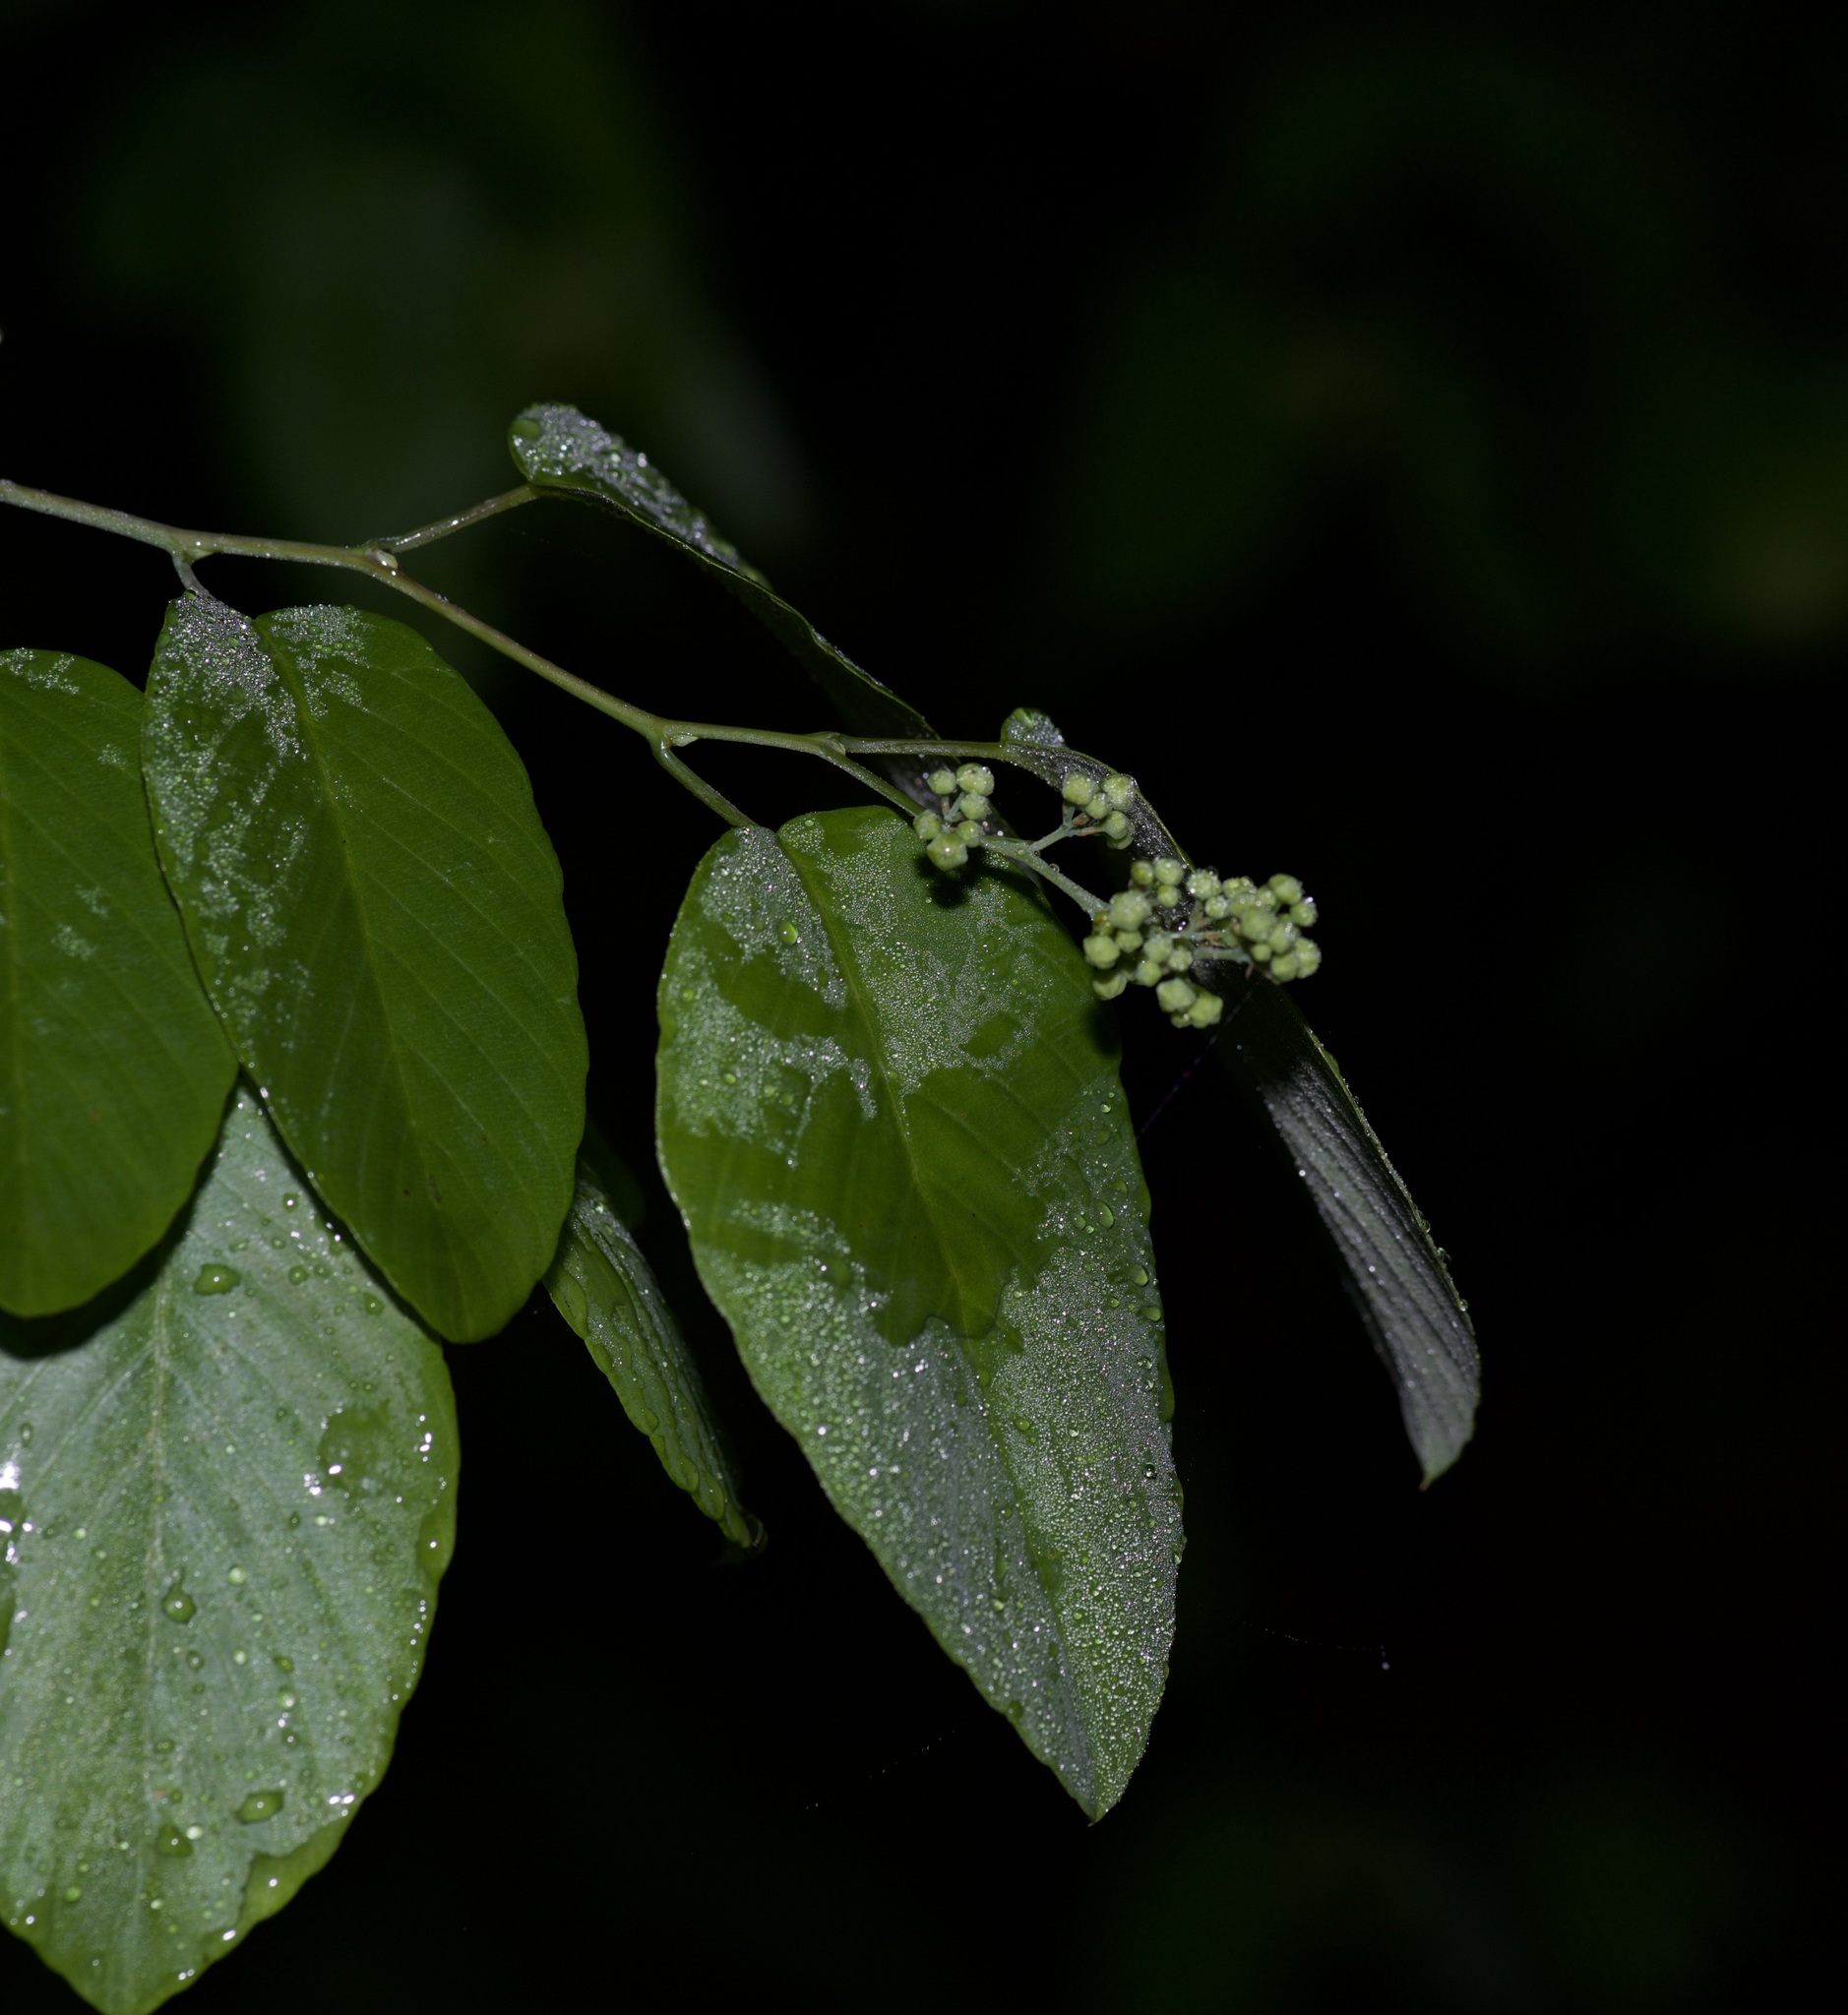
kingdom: Plantae
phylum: Tracheophyta
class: Magnoliopsida
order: Rosales
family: Rhamnaceae
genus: Berchemia
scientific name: Berchemia scandens
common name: Supplejack
